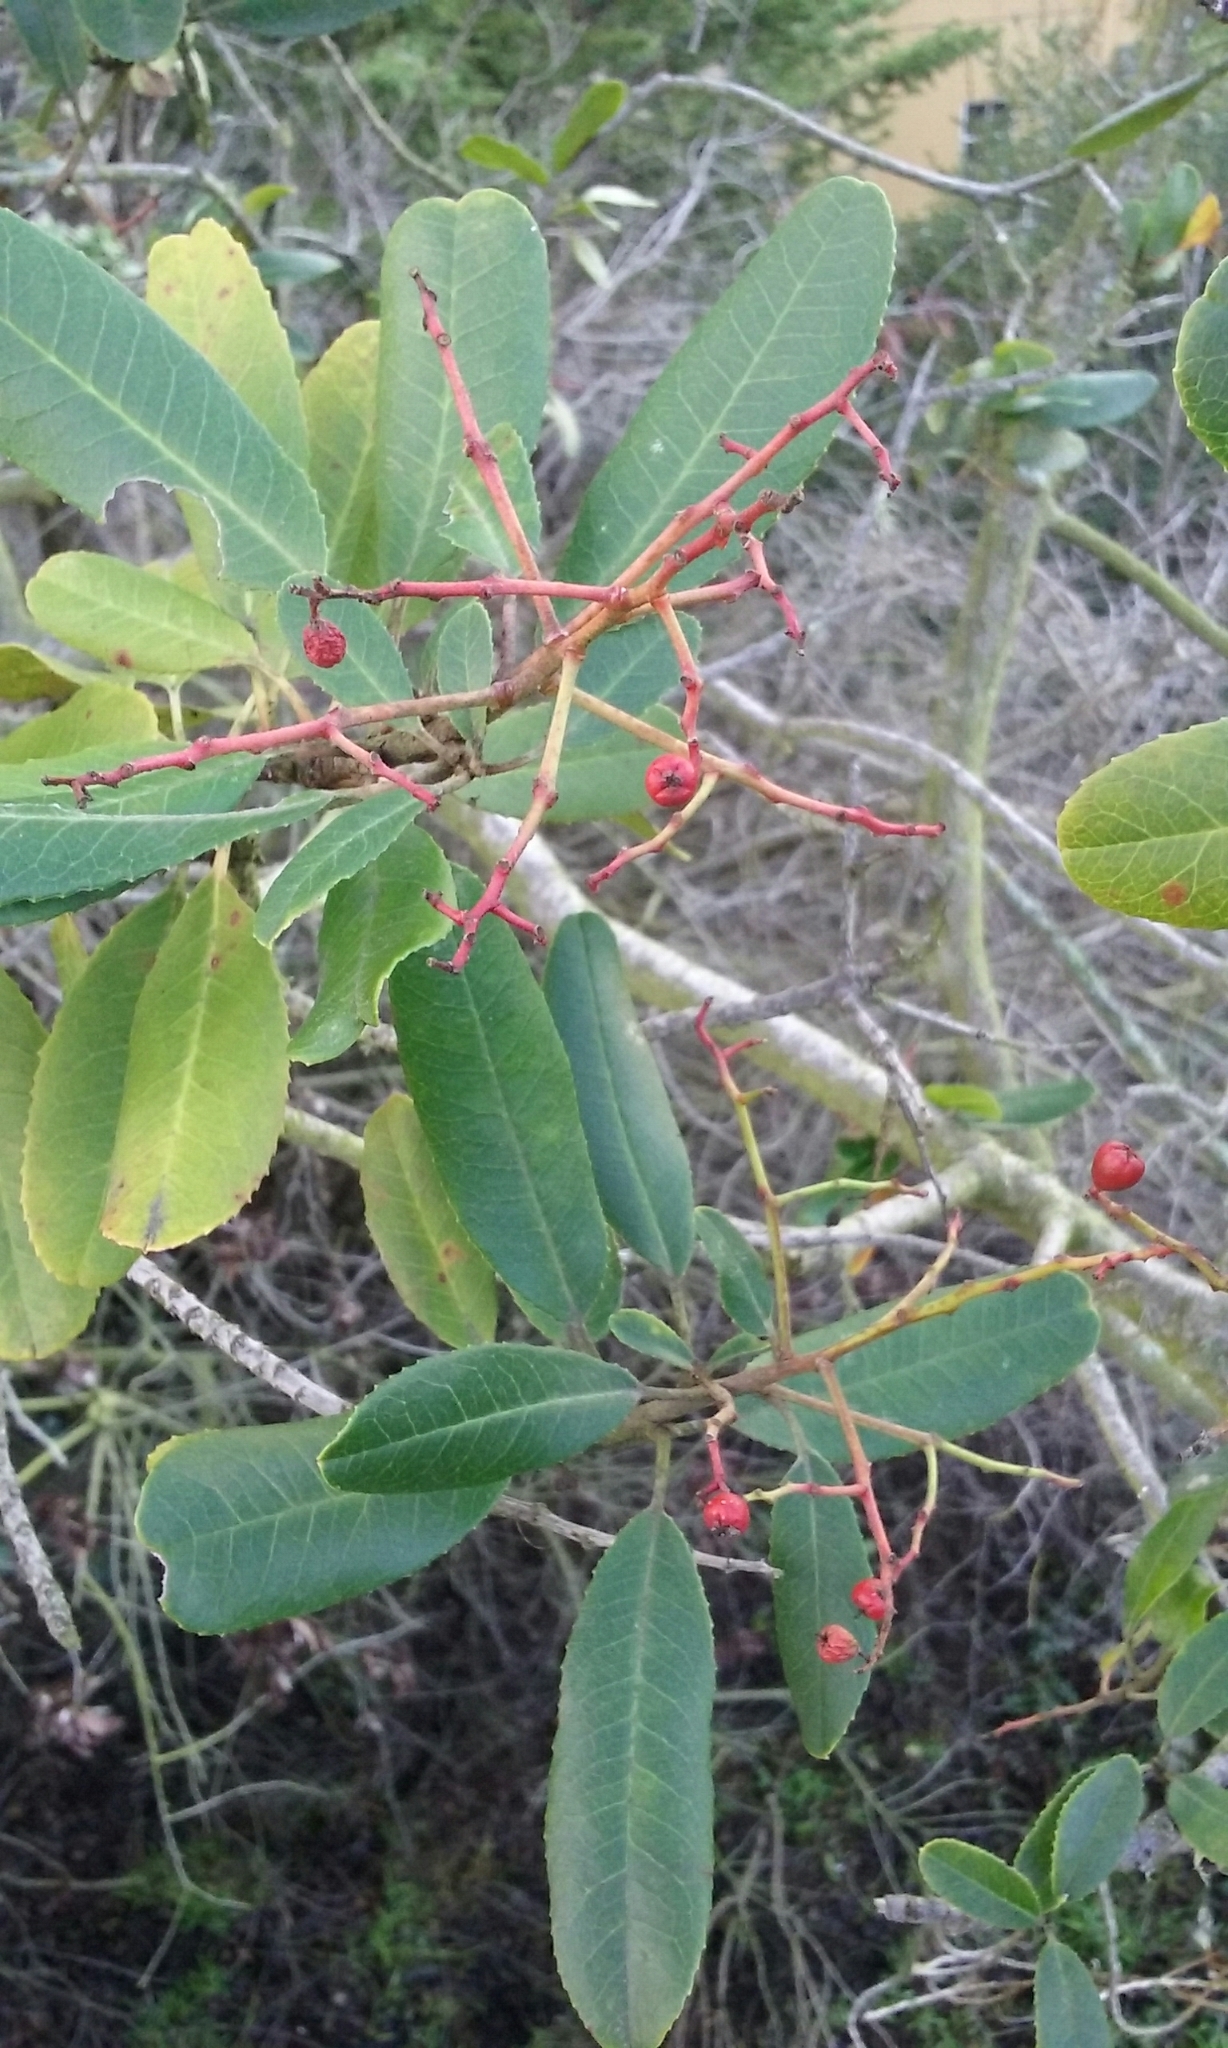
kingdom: Plantae
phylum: Tracheophyta
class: Magnoliopsida
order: Rosales
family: Rosaceae
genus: Heteromeles
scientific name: Heteromeles arbutifolia
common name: California-holly
